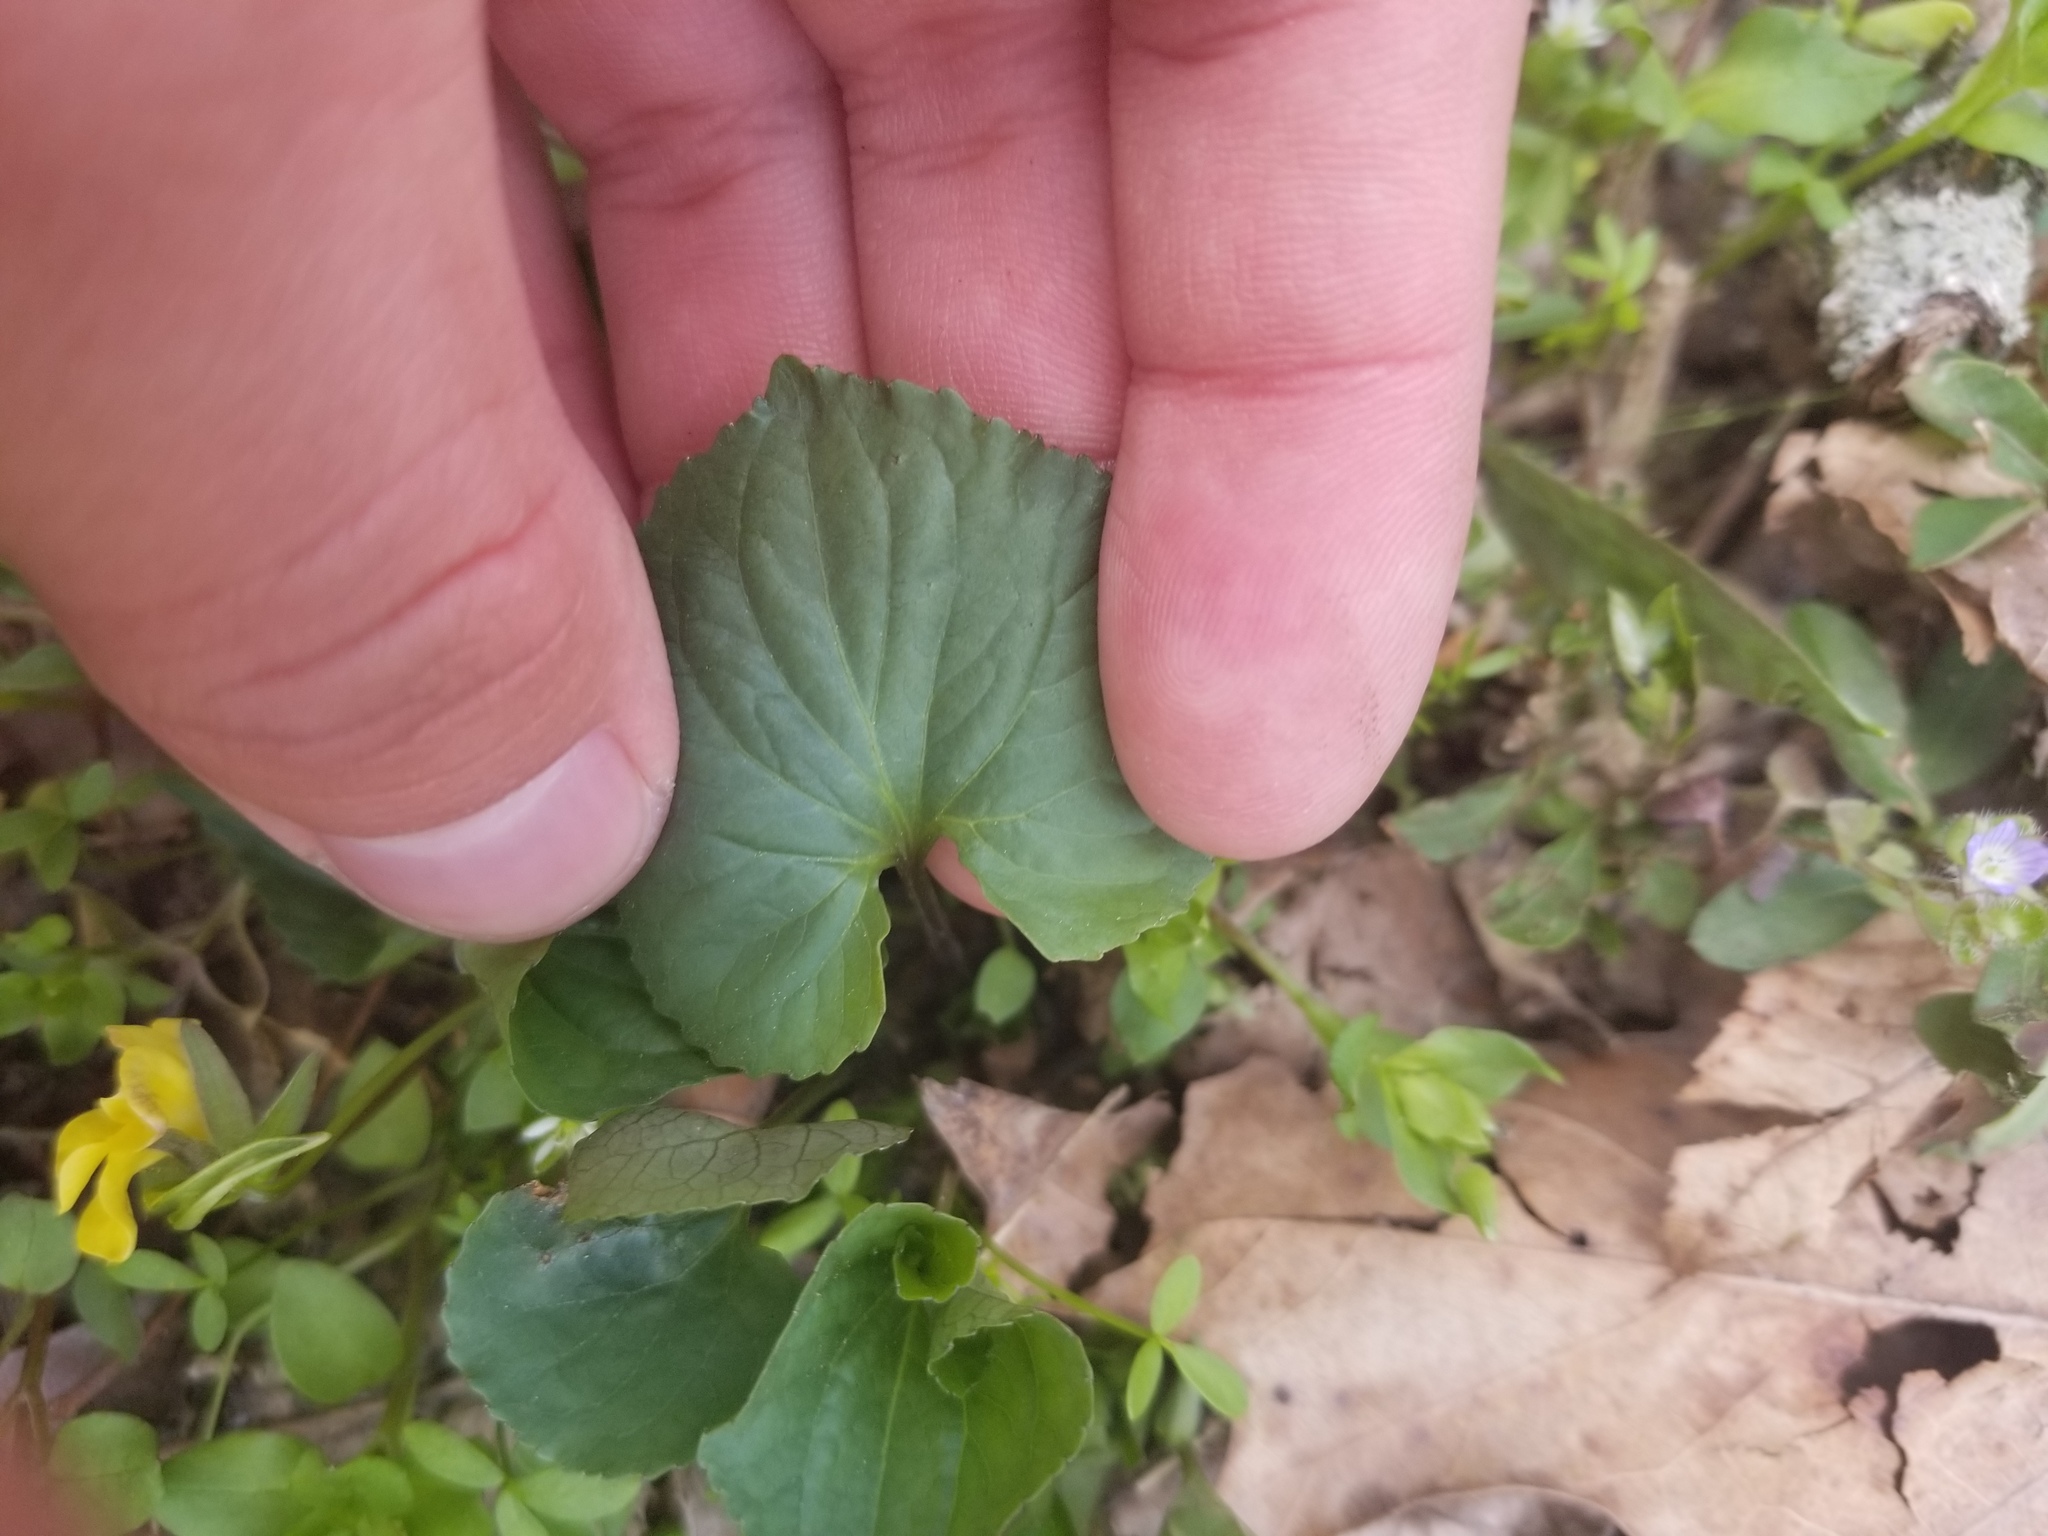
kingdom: Plantae
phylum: Tracheophyta
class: Magnoliopsida
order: Malpighiales
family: Violaceae
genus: Viola
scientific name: Viola eriocarpa
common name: Smooth yellow violet
